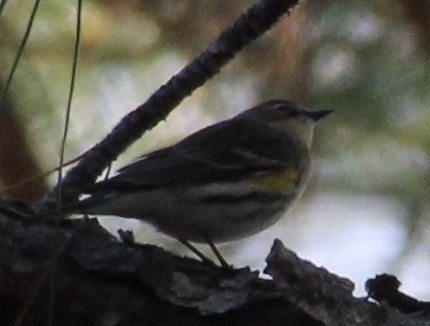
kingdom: Animalia
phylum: Chordata
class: Aves
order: Passeriformes
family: Parulidae
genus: Setophaga
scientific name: Setophaga coronata
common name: Myrtle warbler
